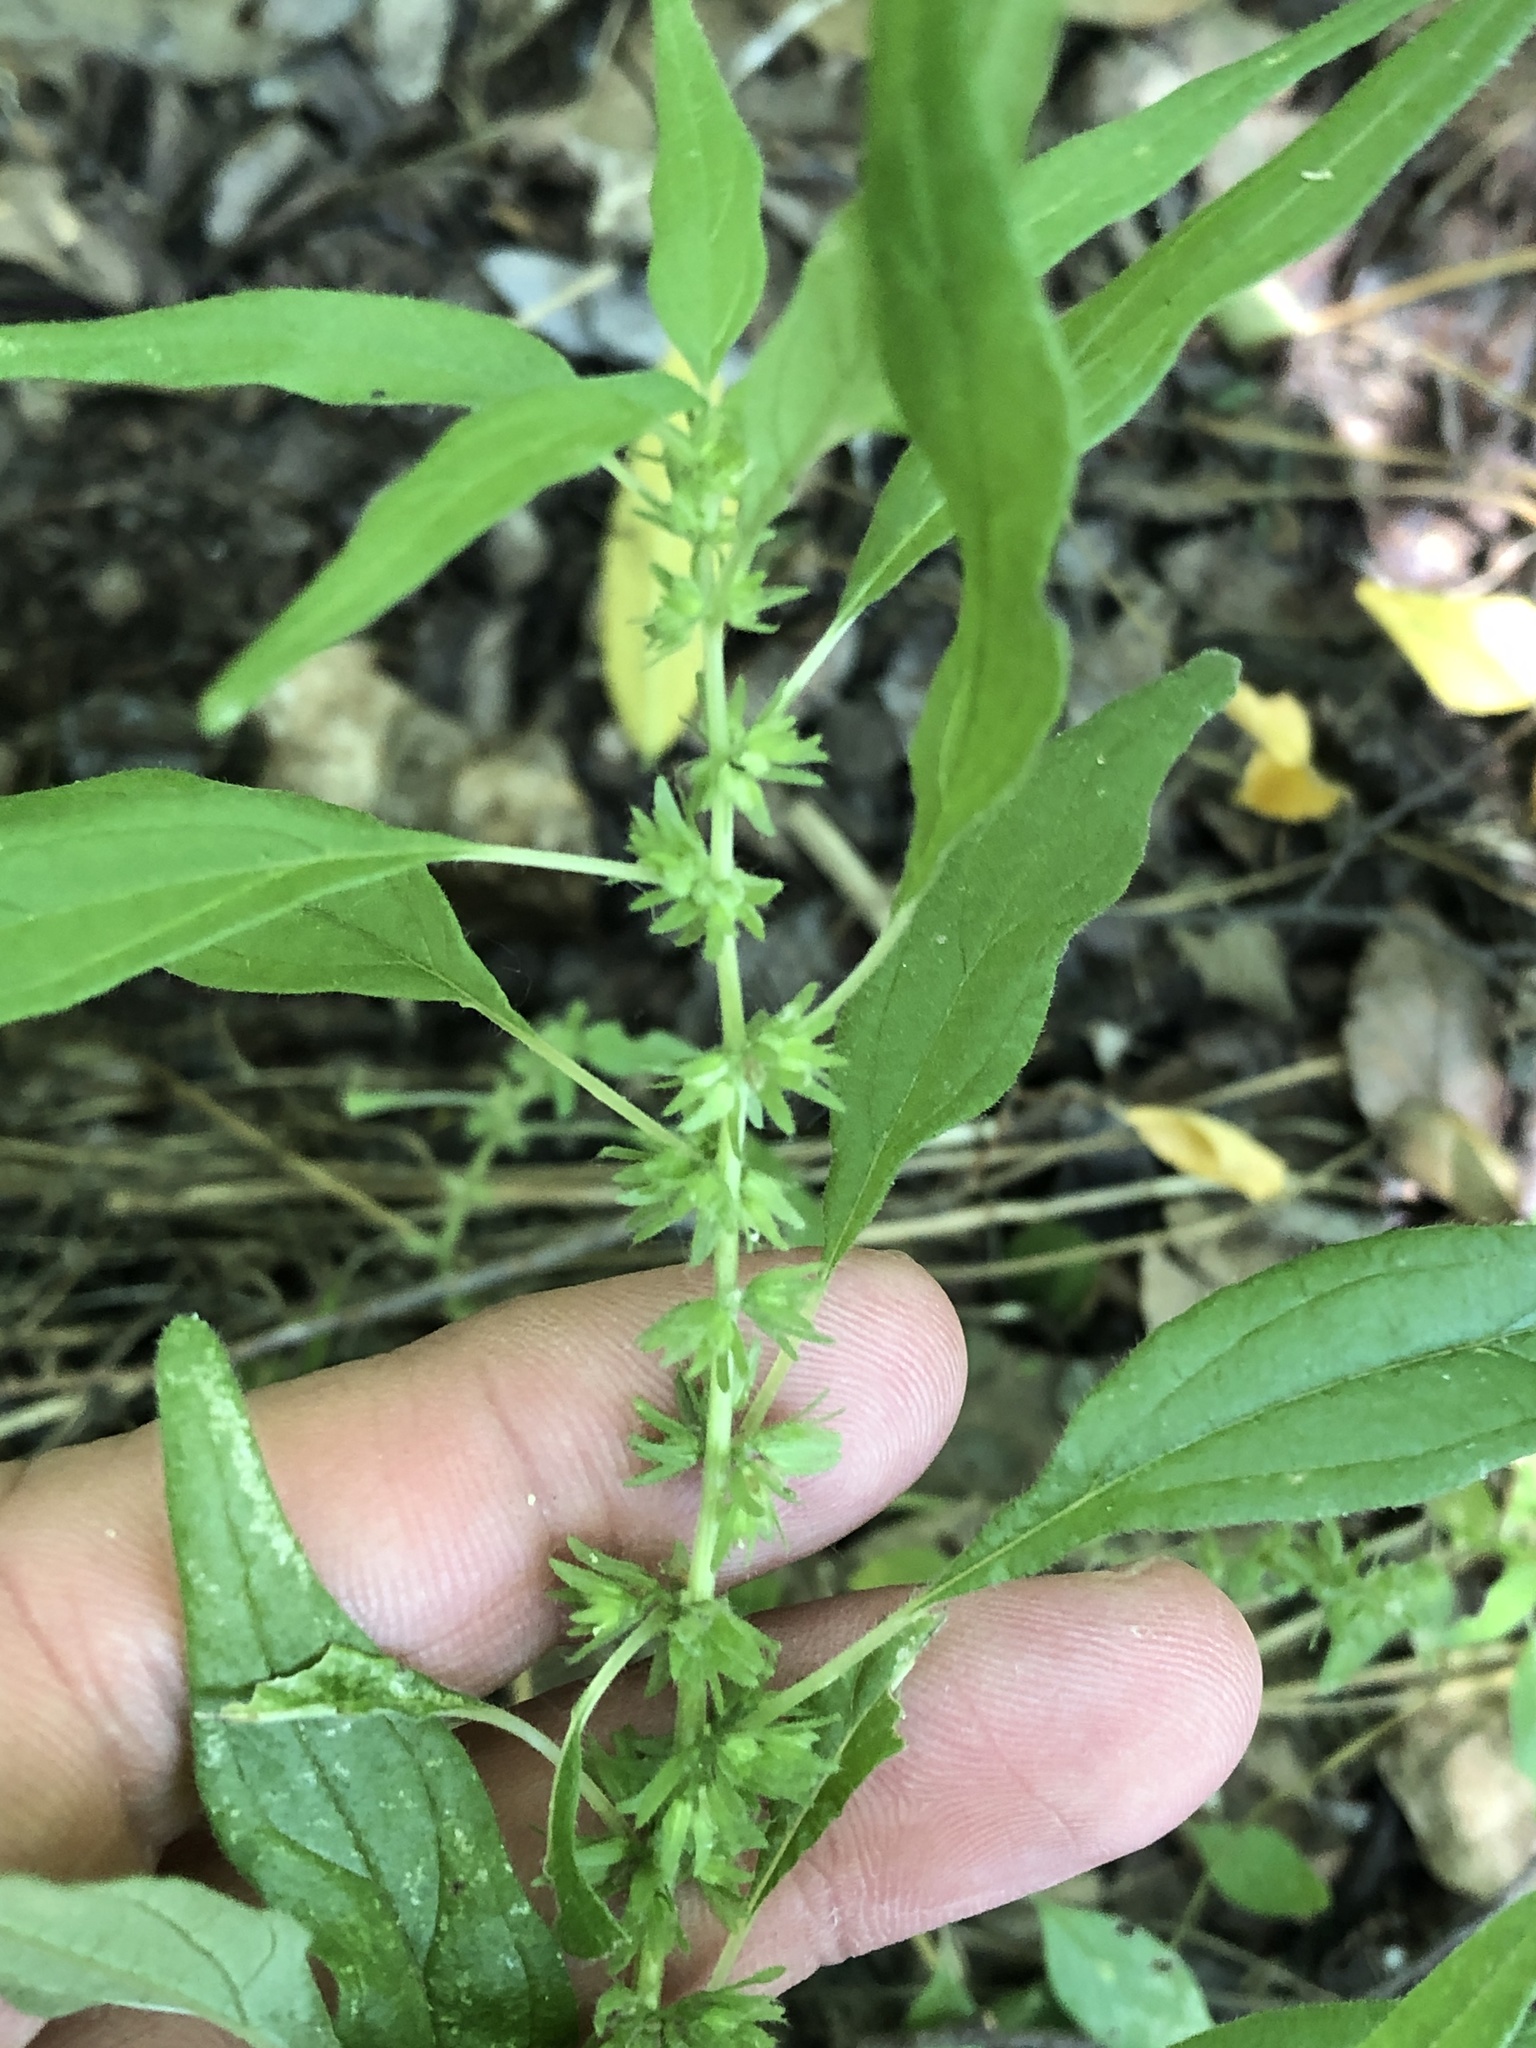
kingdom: Plantae
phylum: Tracheophyta
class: Magnoliopsida
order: Rosales
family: Urticaceae
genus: Parietaria
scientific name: Parietaria pensylvanica
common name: Pennsylvania pellitory
